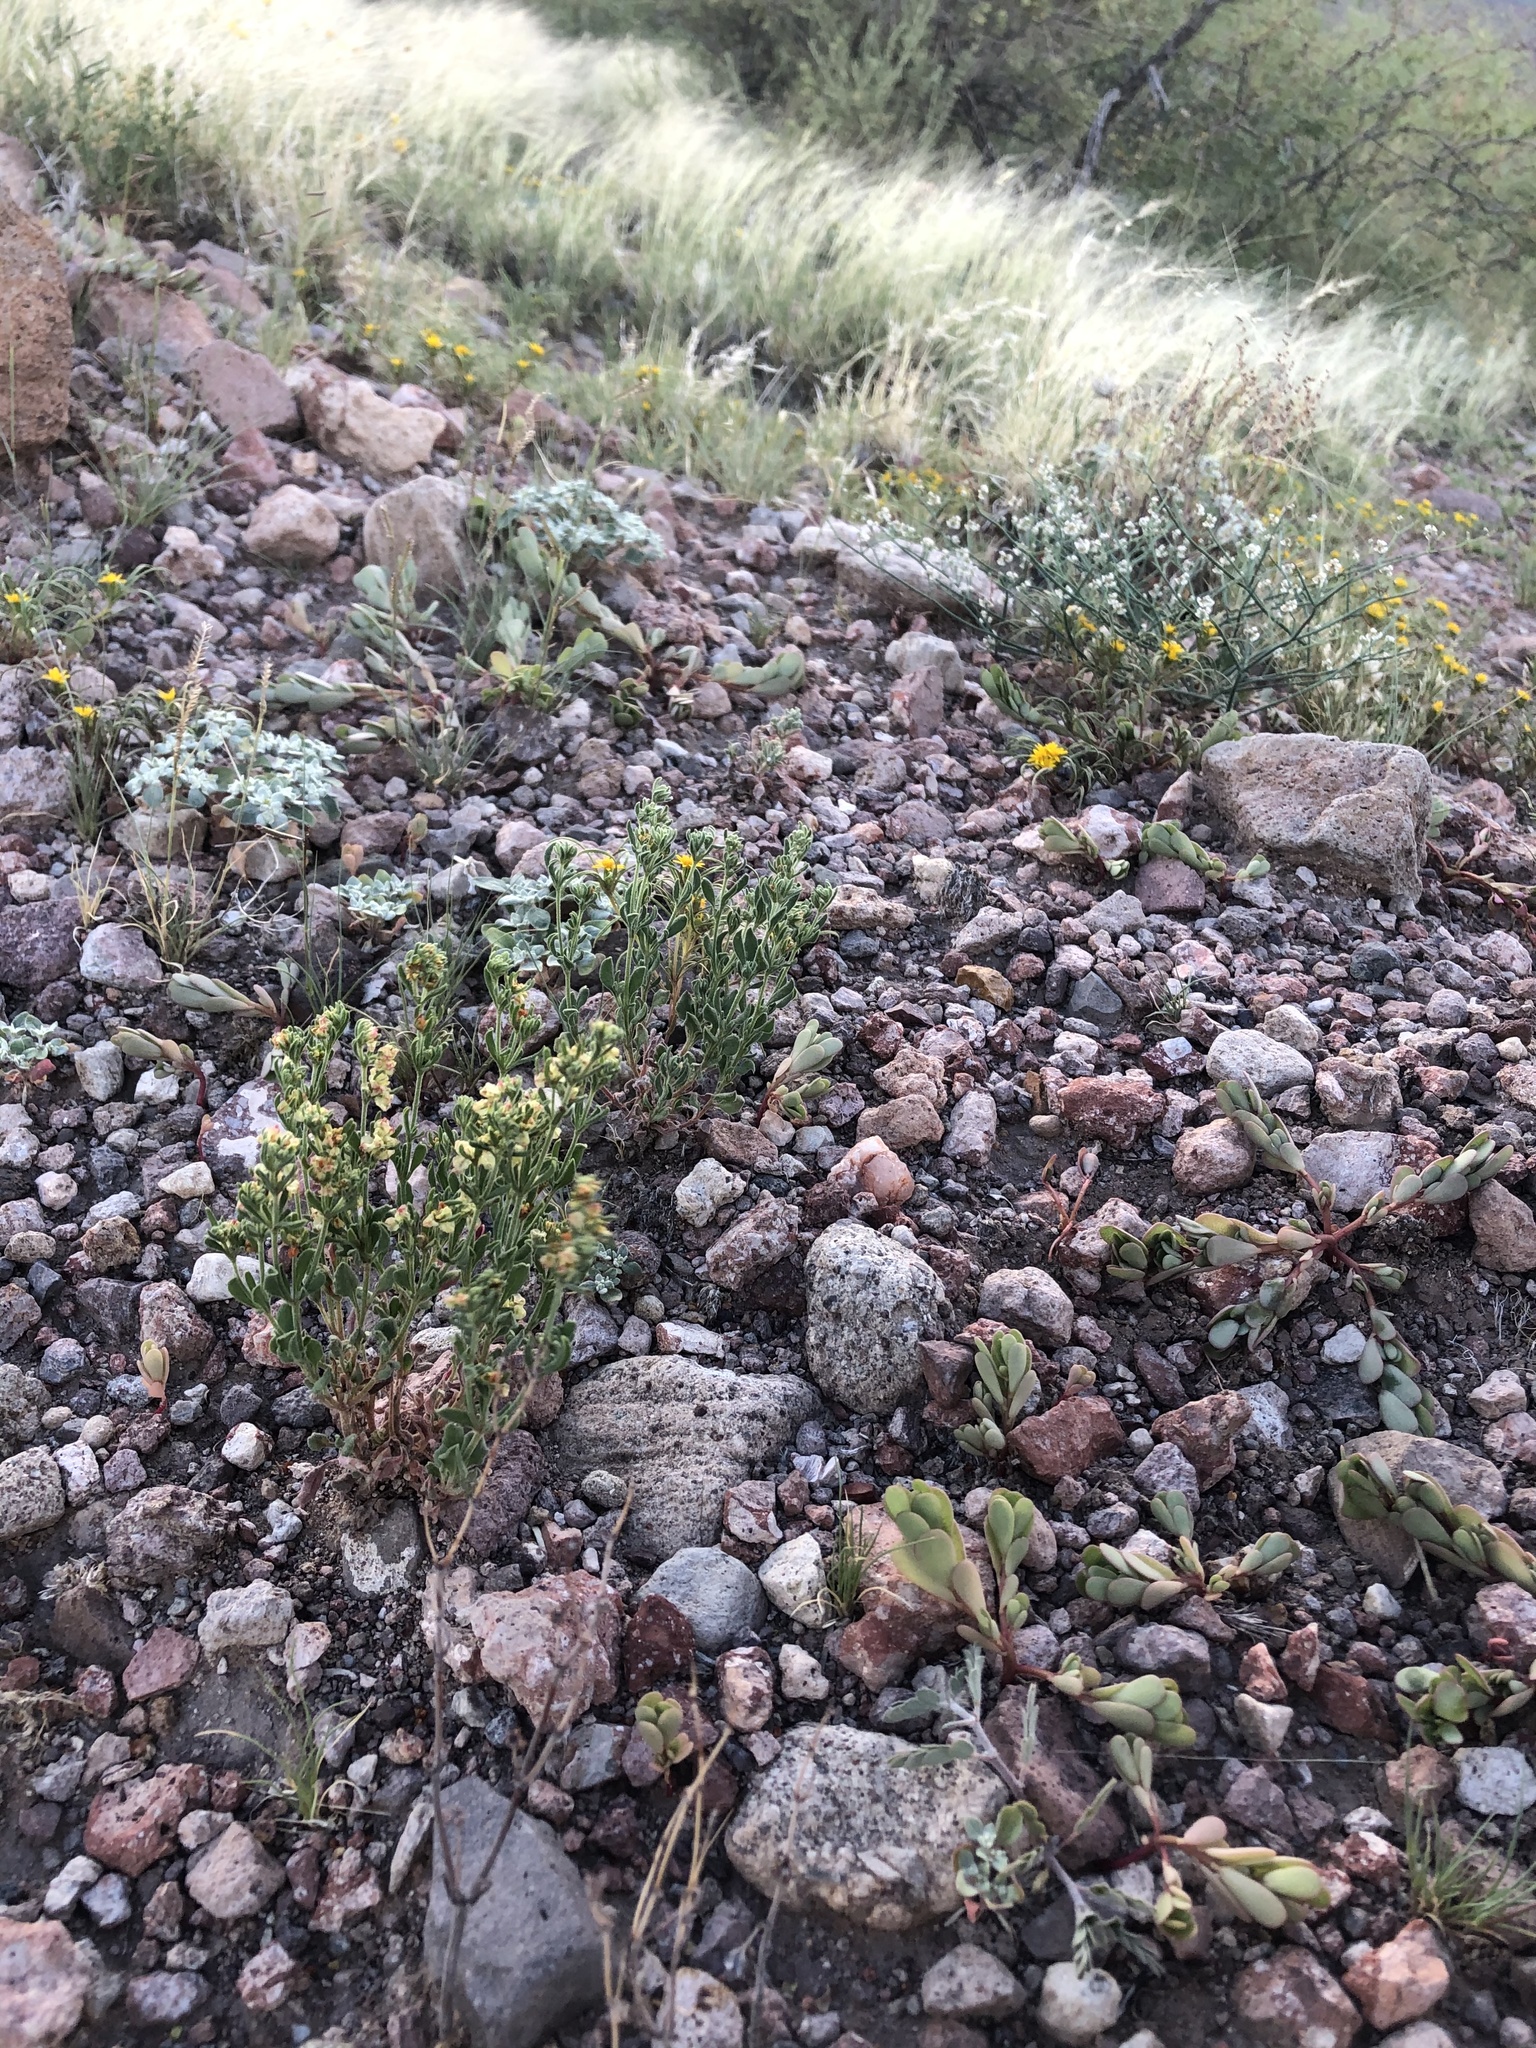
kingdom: Plantae
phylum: Tracheophyta
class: Magnoliopsida
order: Caryophyllales
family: Polygonaceae
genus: Eriogonum
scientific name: Eriogonum abertianum
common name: Abert's wild buckwheat
